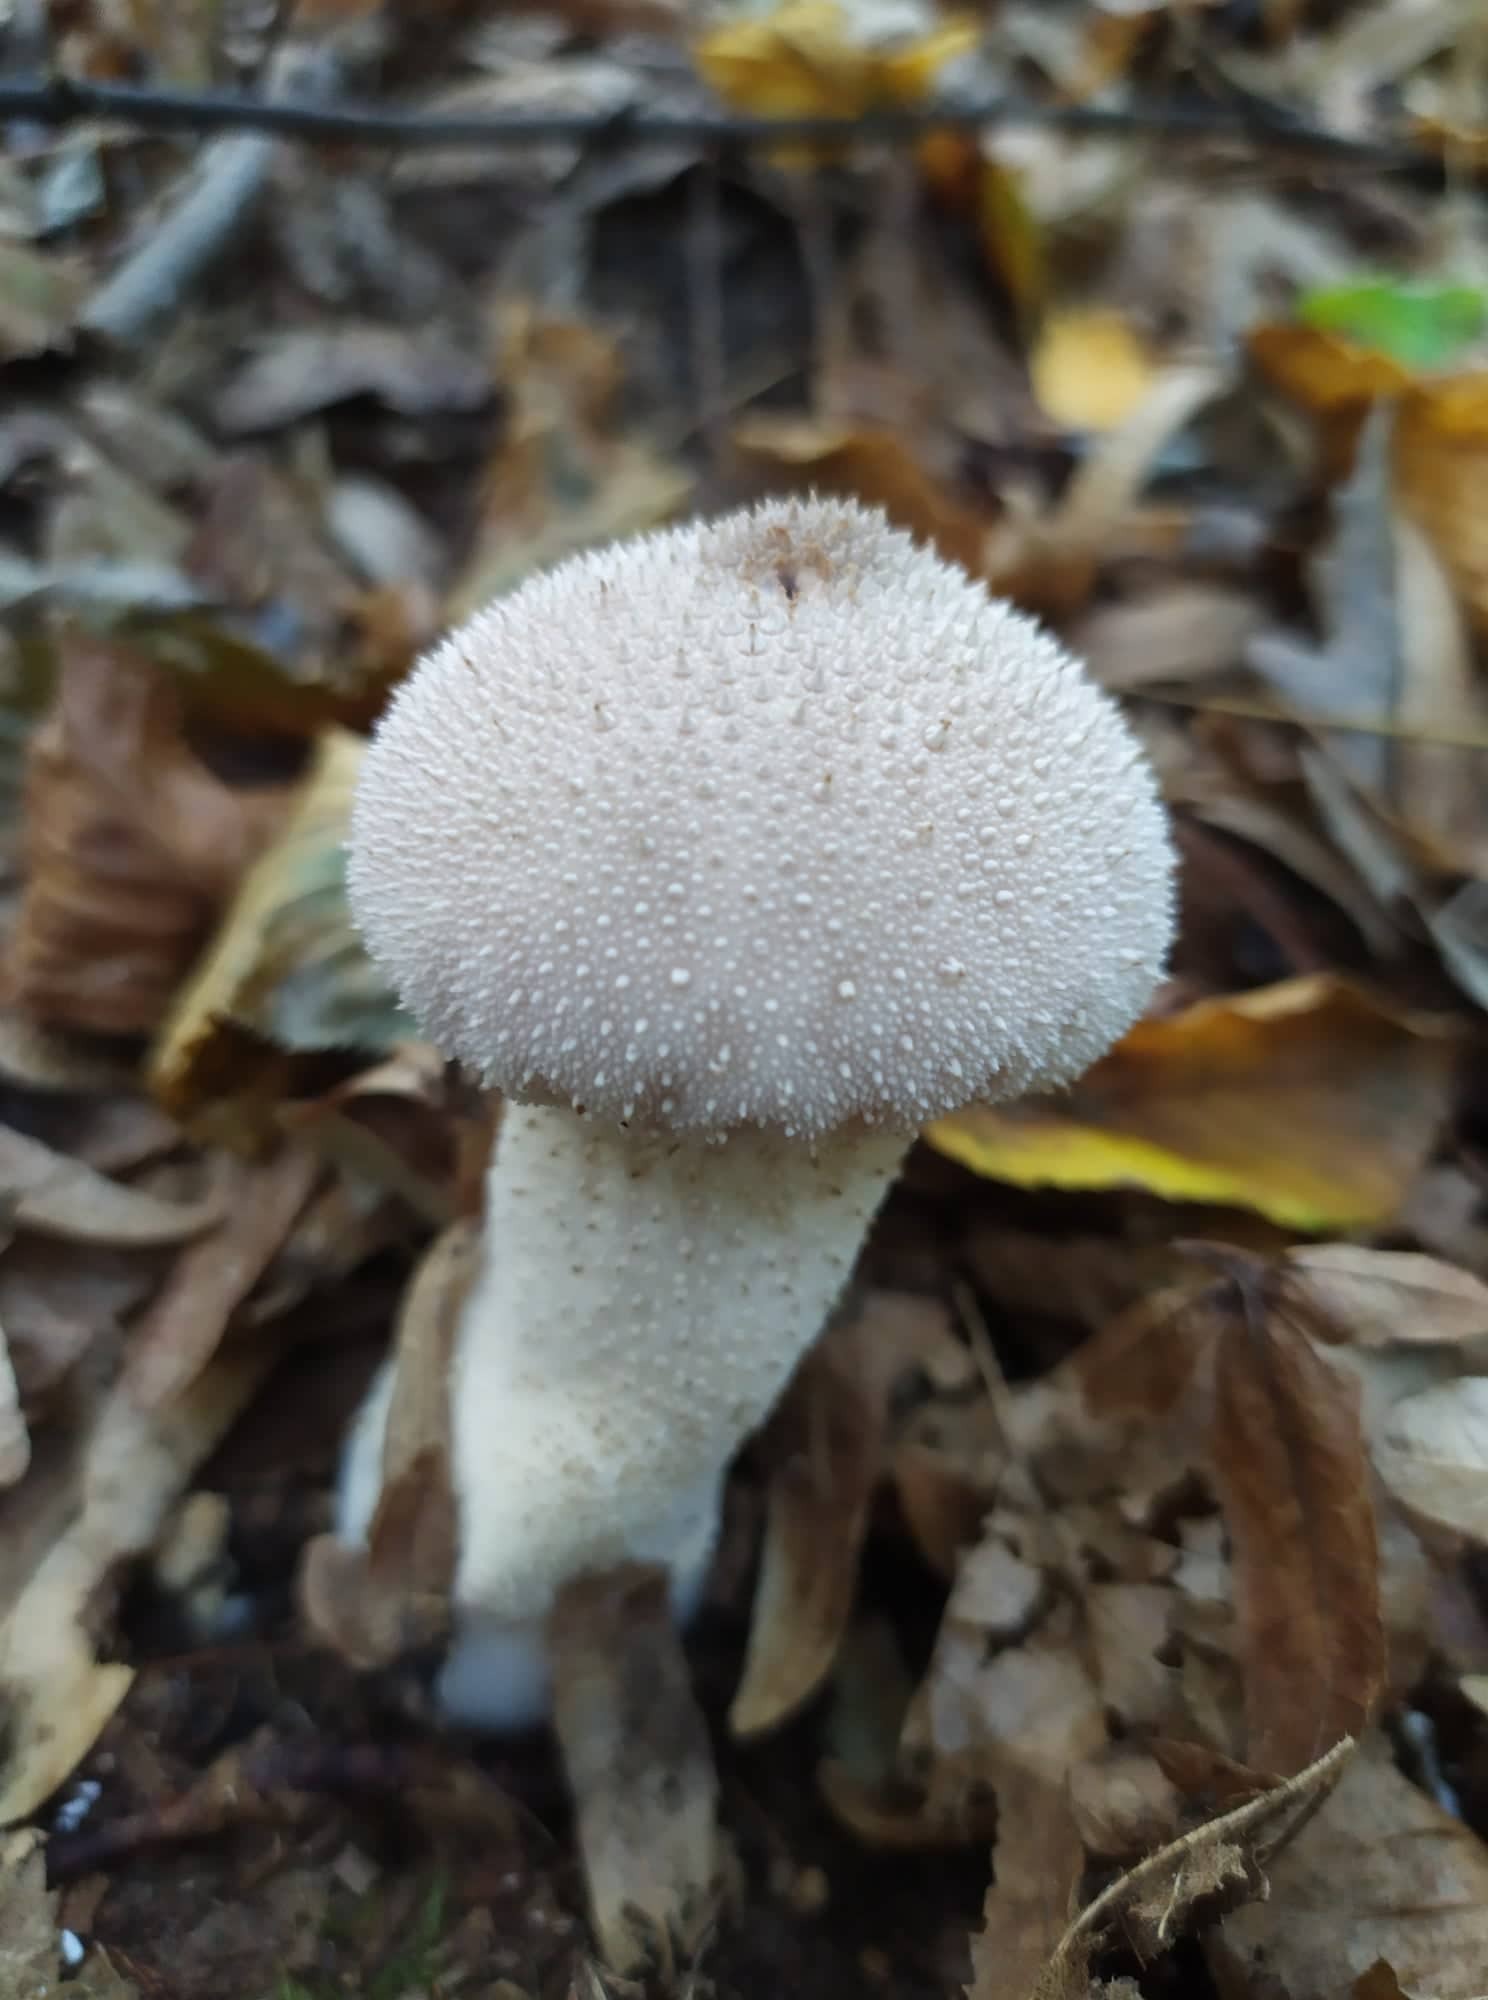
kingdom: Fungi
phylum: Basidiomycota
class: Agaricomycetes
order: Agaricales
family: Lycoperdaceae
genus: Lycoperdon
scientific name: Lycoperdon perlatum
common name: Common puffball
